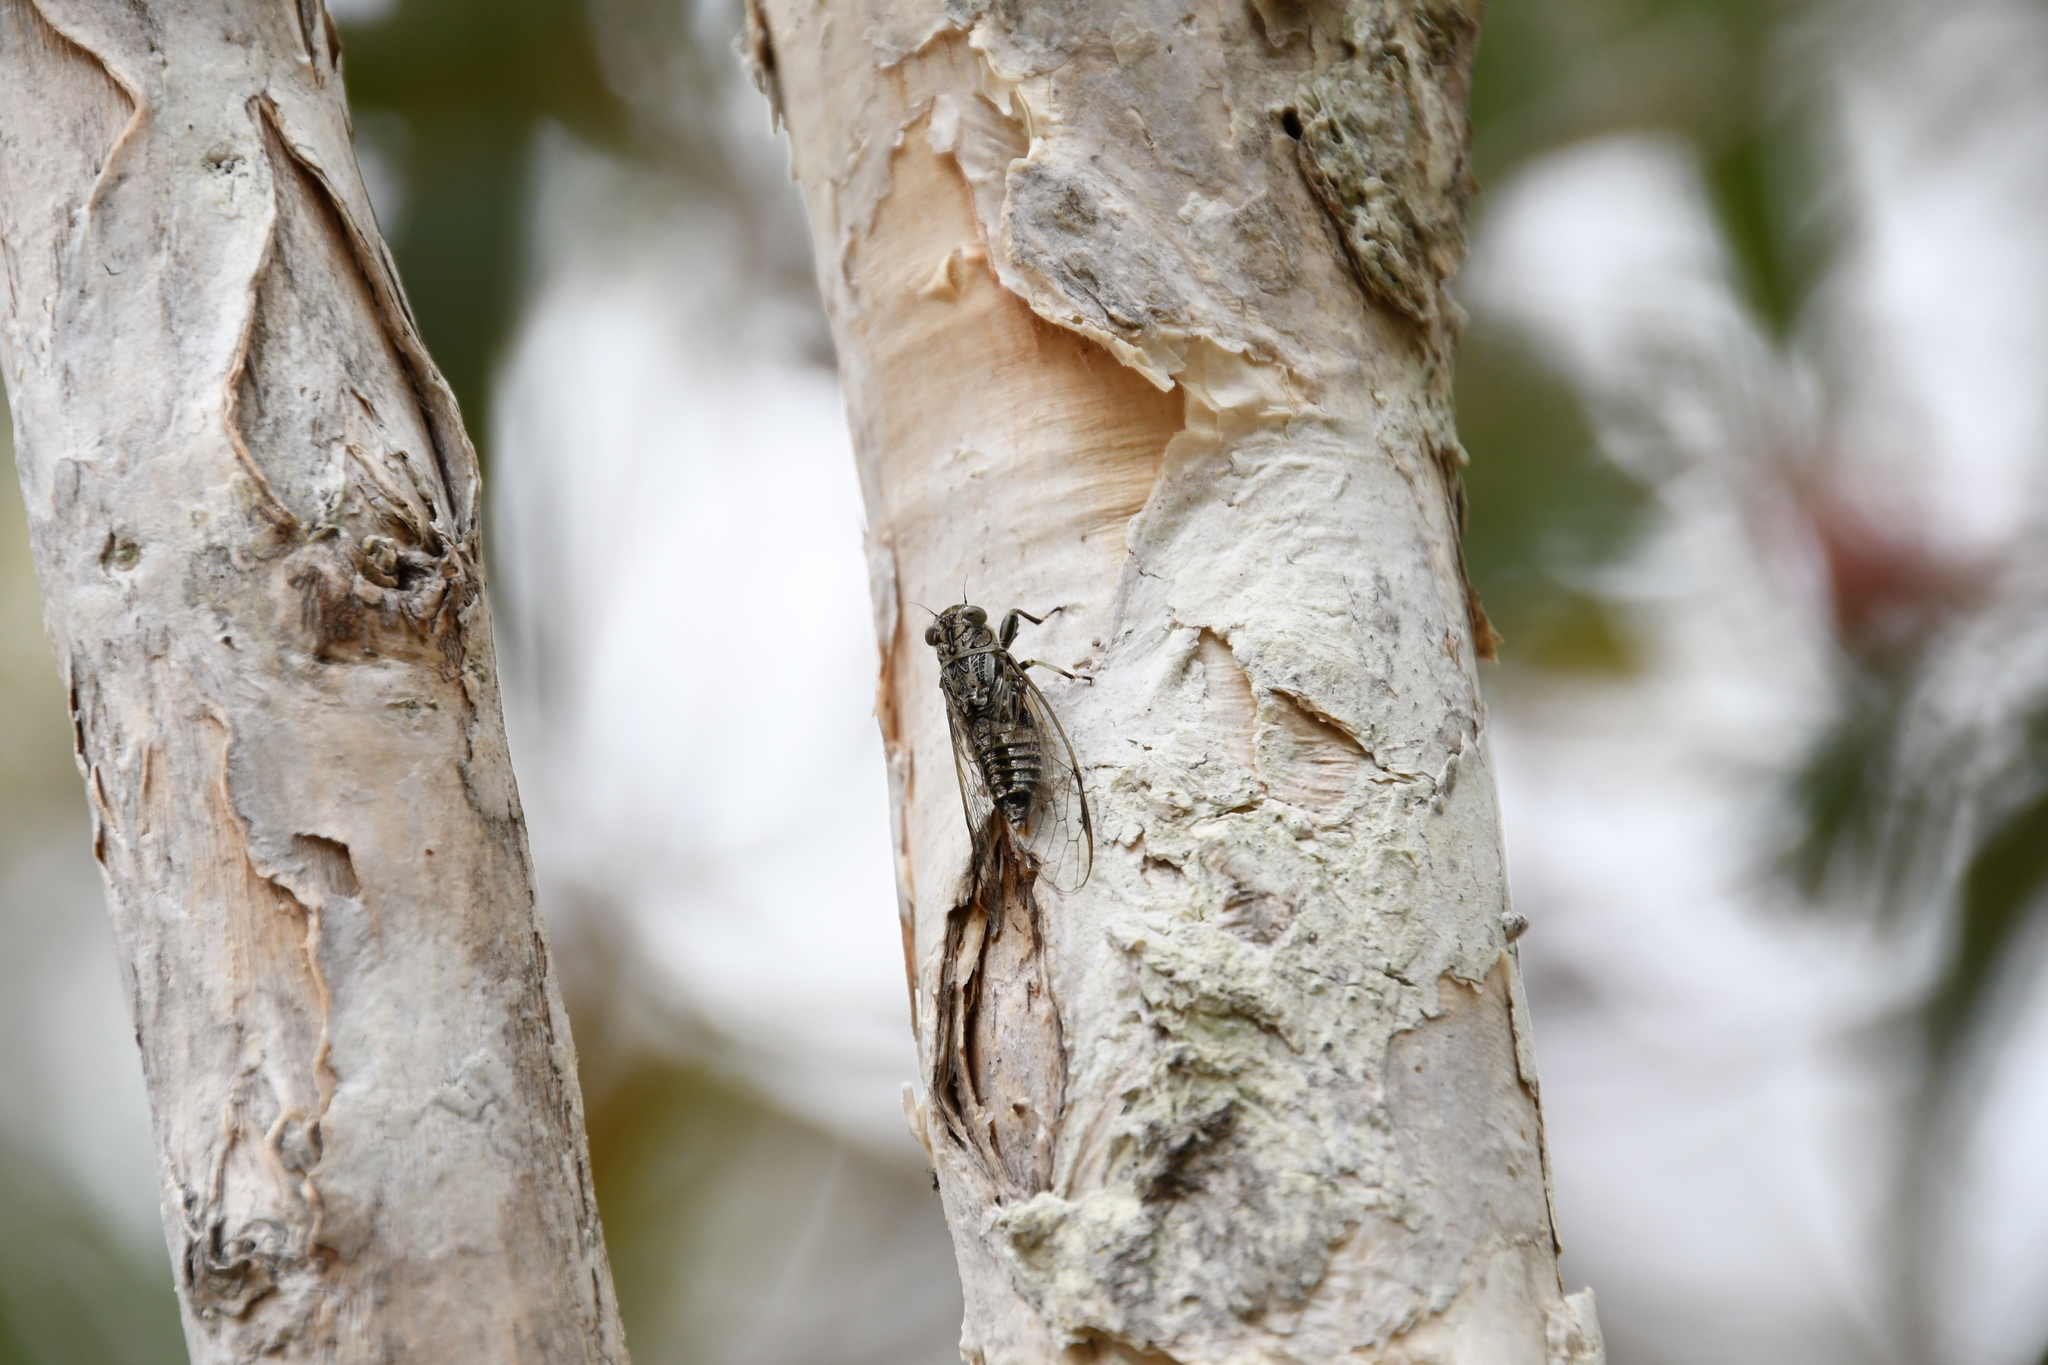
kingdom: Animalia
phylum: Arthropoda
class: Insecta
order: Hemiptera
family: Cicadidae
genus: Telmapsalta
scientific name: Telmapsalta hackeri
